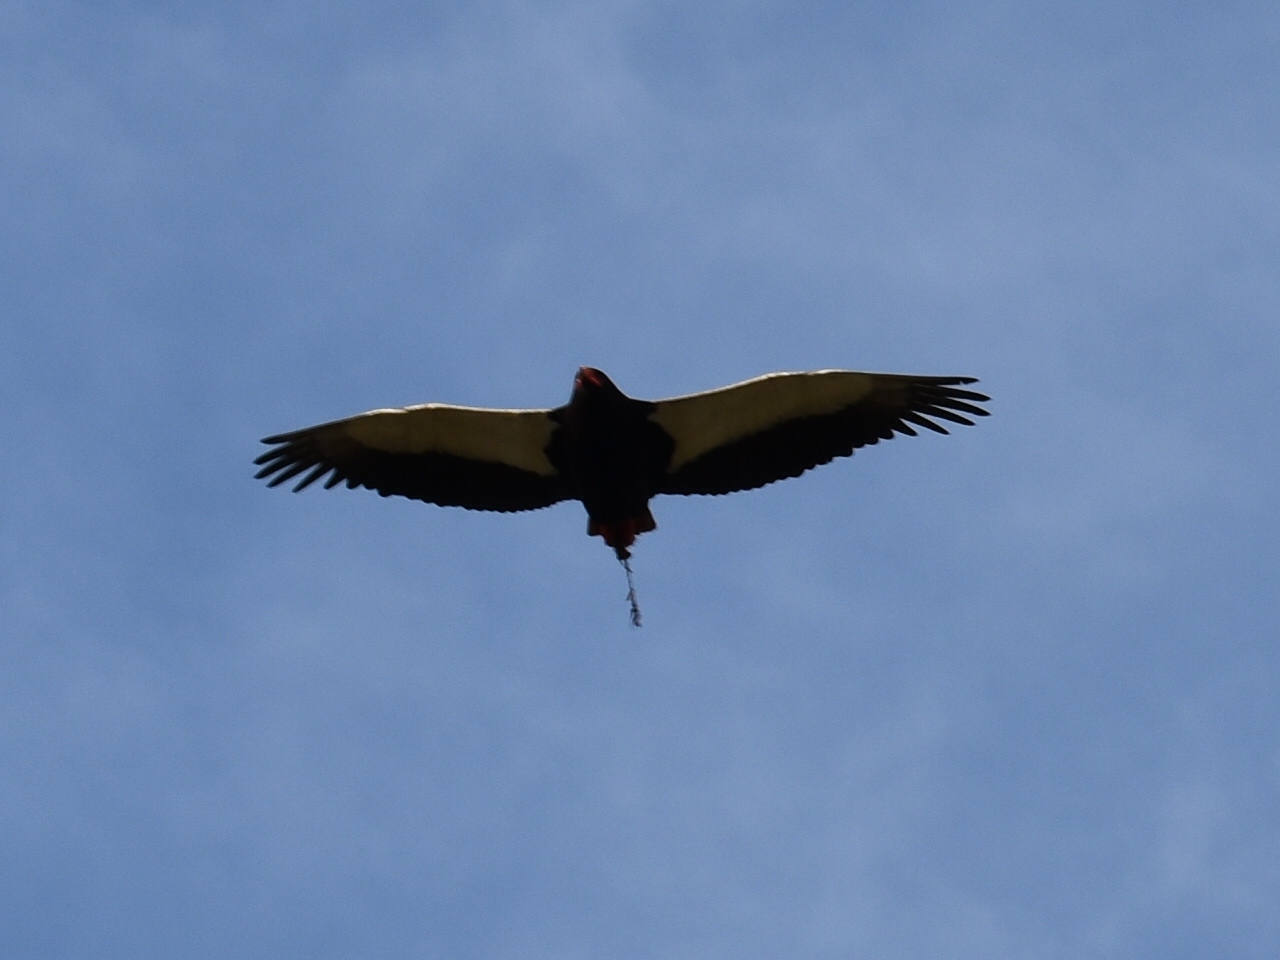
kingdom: Animalia
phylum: Chordata
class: Aves
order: Accipitriformes
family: Accipitridae
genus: Terathopius
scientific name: Terathopius ecaudatus
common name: Bateleur
